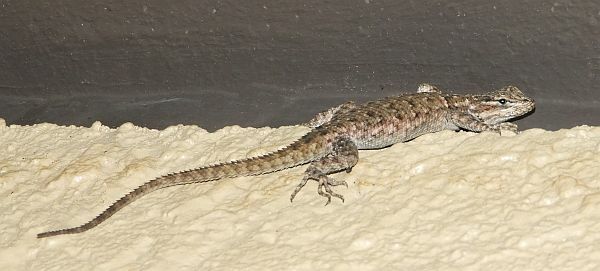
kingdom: Animalia
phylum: Chordata
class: Squamata
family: Phrynosomatidae
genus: Sceloporus
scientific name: Sceloporus jarrovii
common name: Yarrow's spiny lizard
